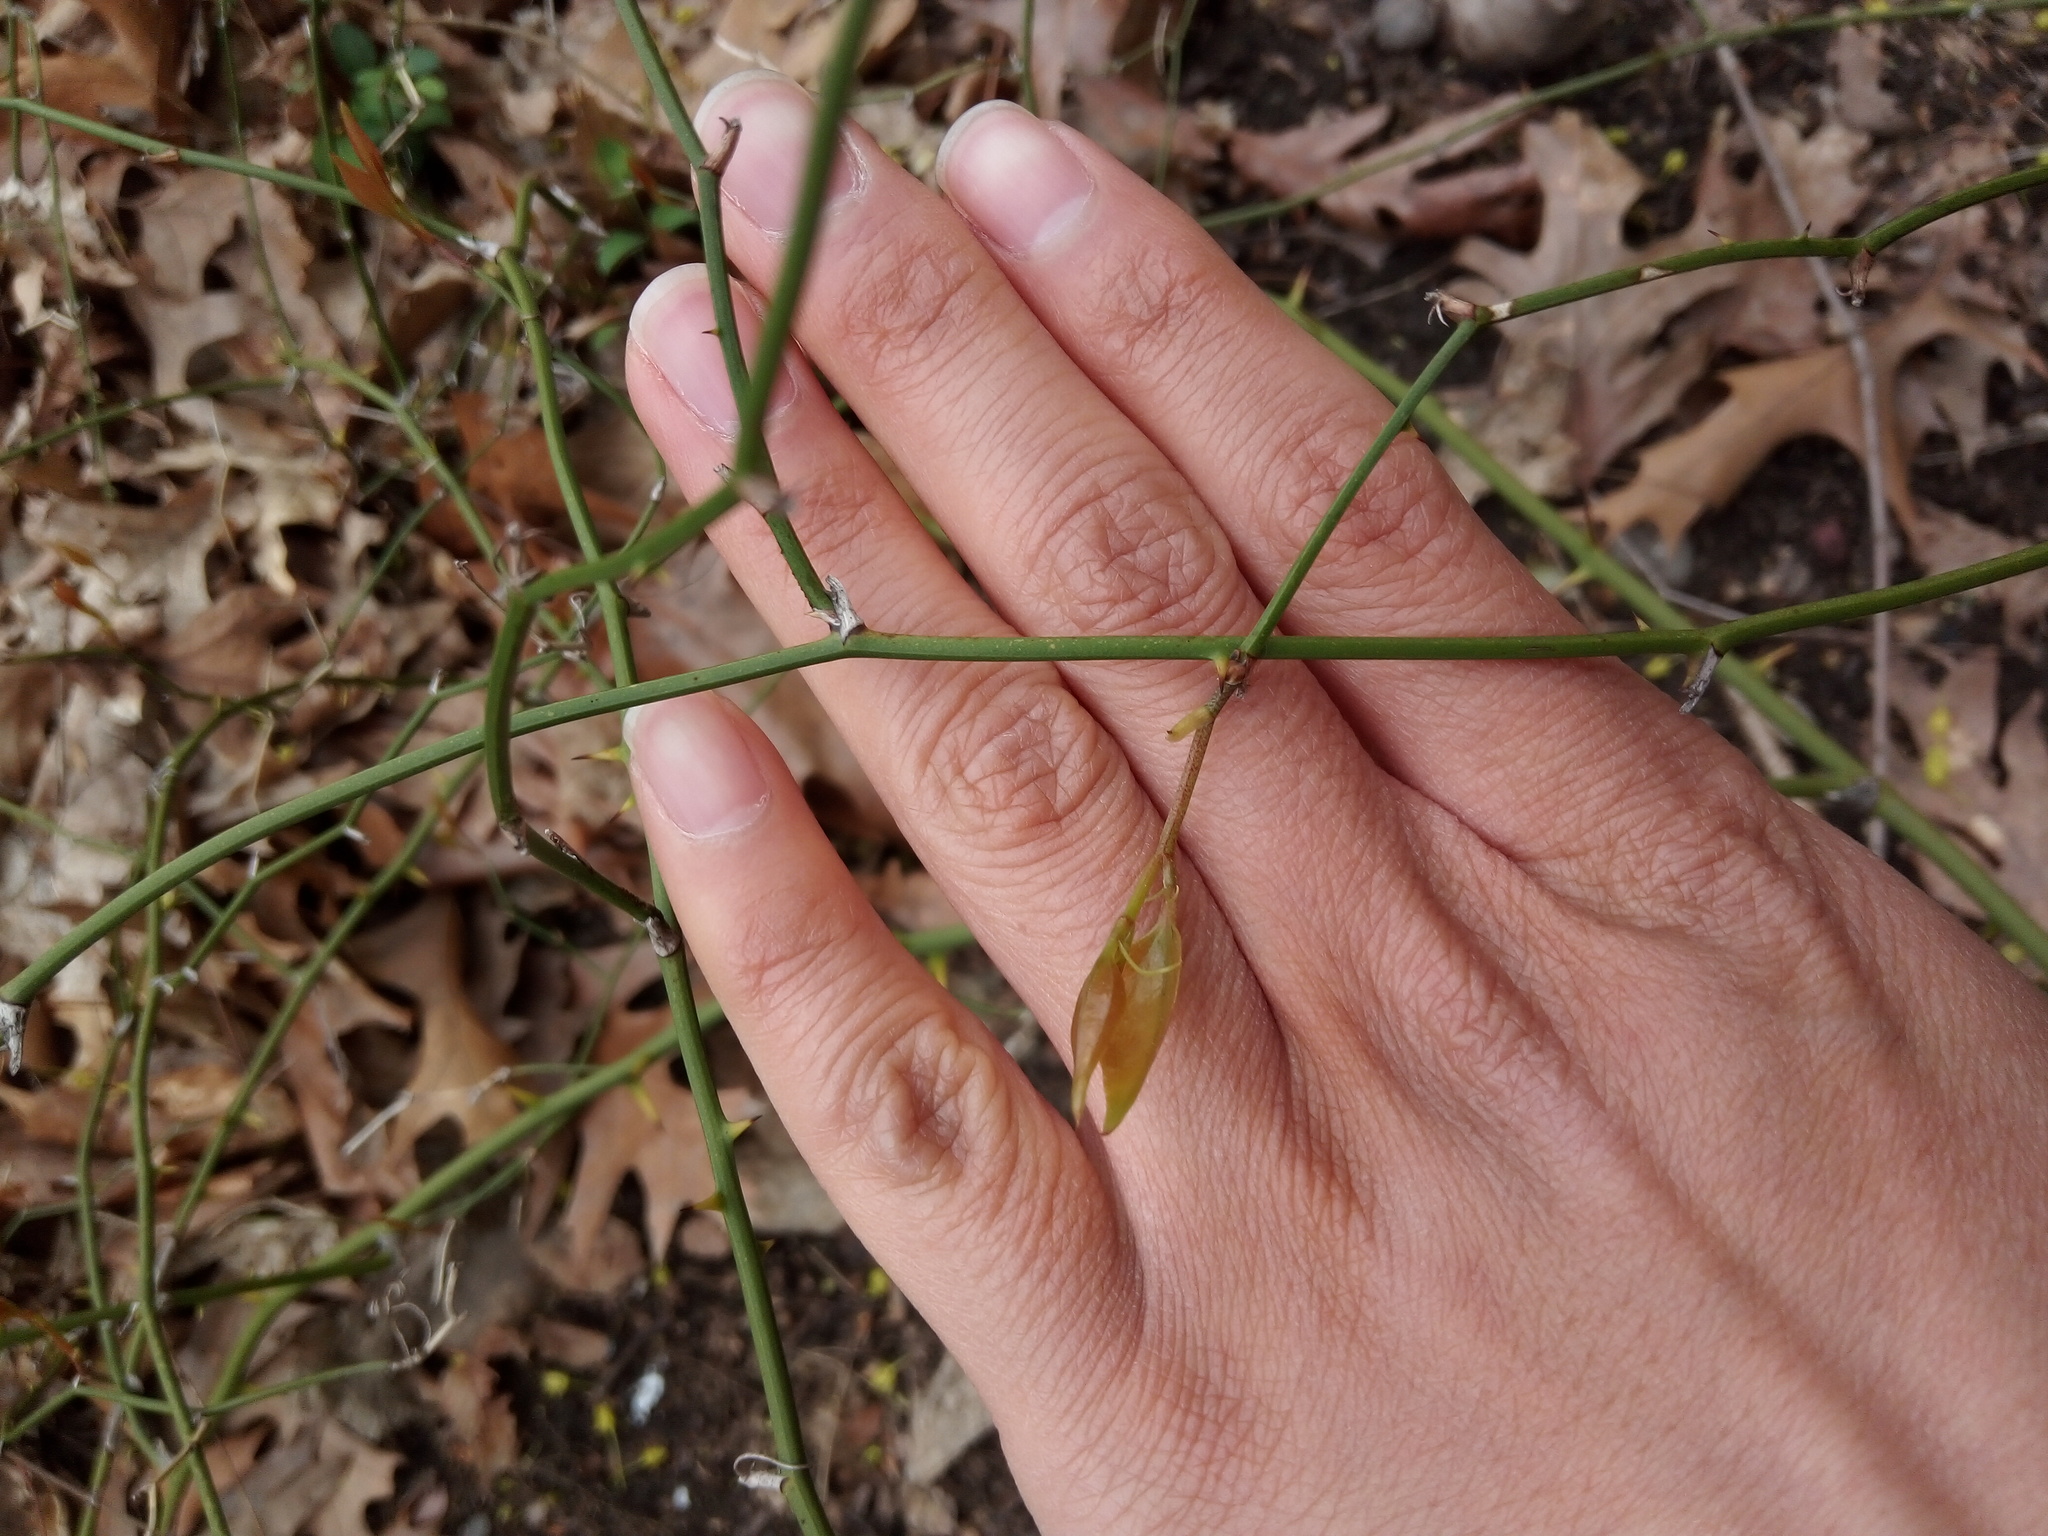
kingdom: Plantae
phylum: Tracheophyta
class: Liliopsida
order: Liliales
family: Smilacaceae
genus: Smilax
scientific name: Smilax rotundifolia
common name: Bullbriar
